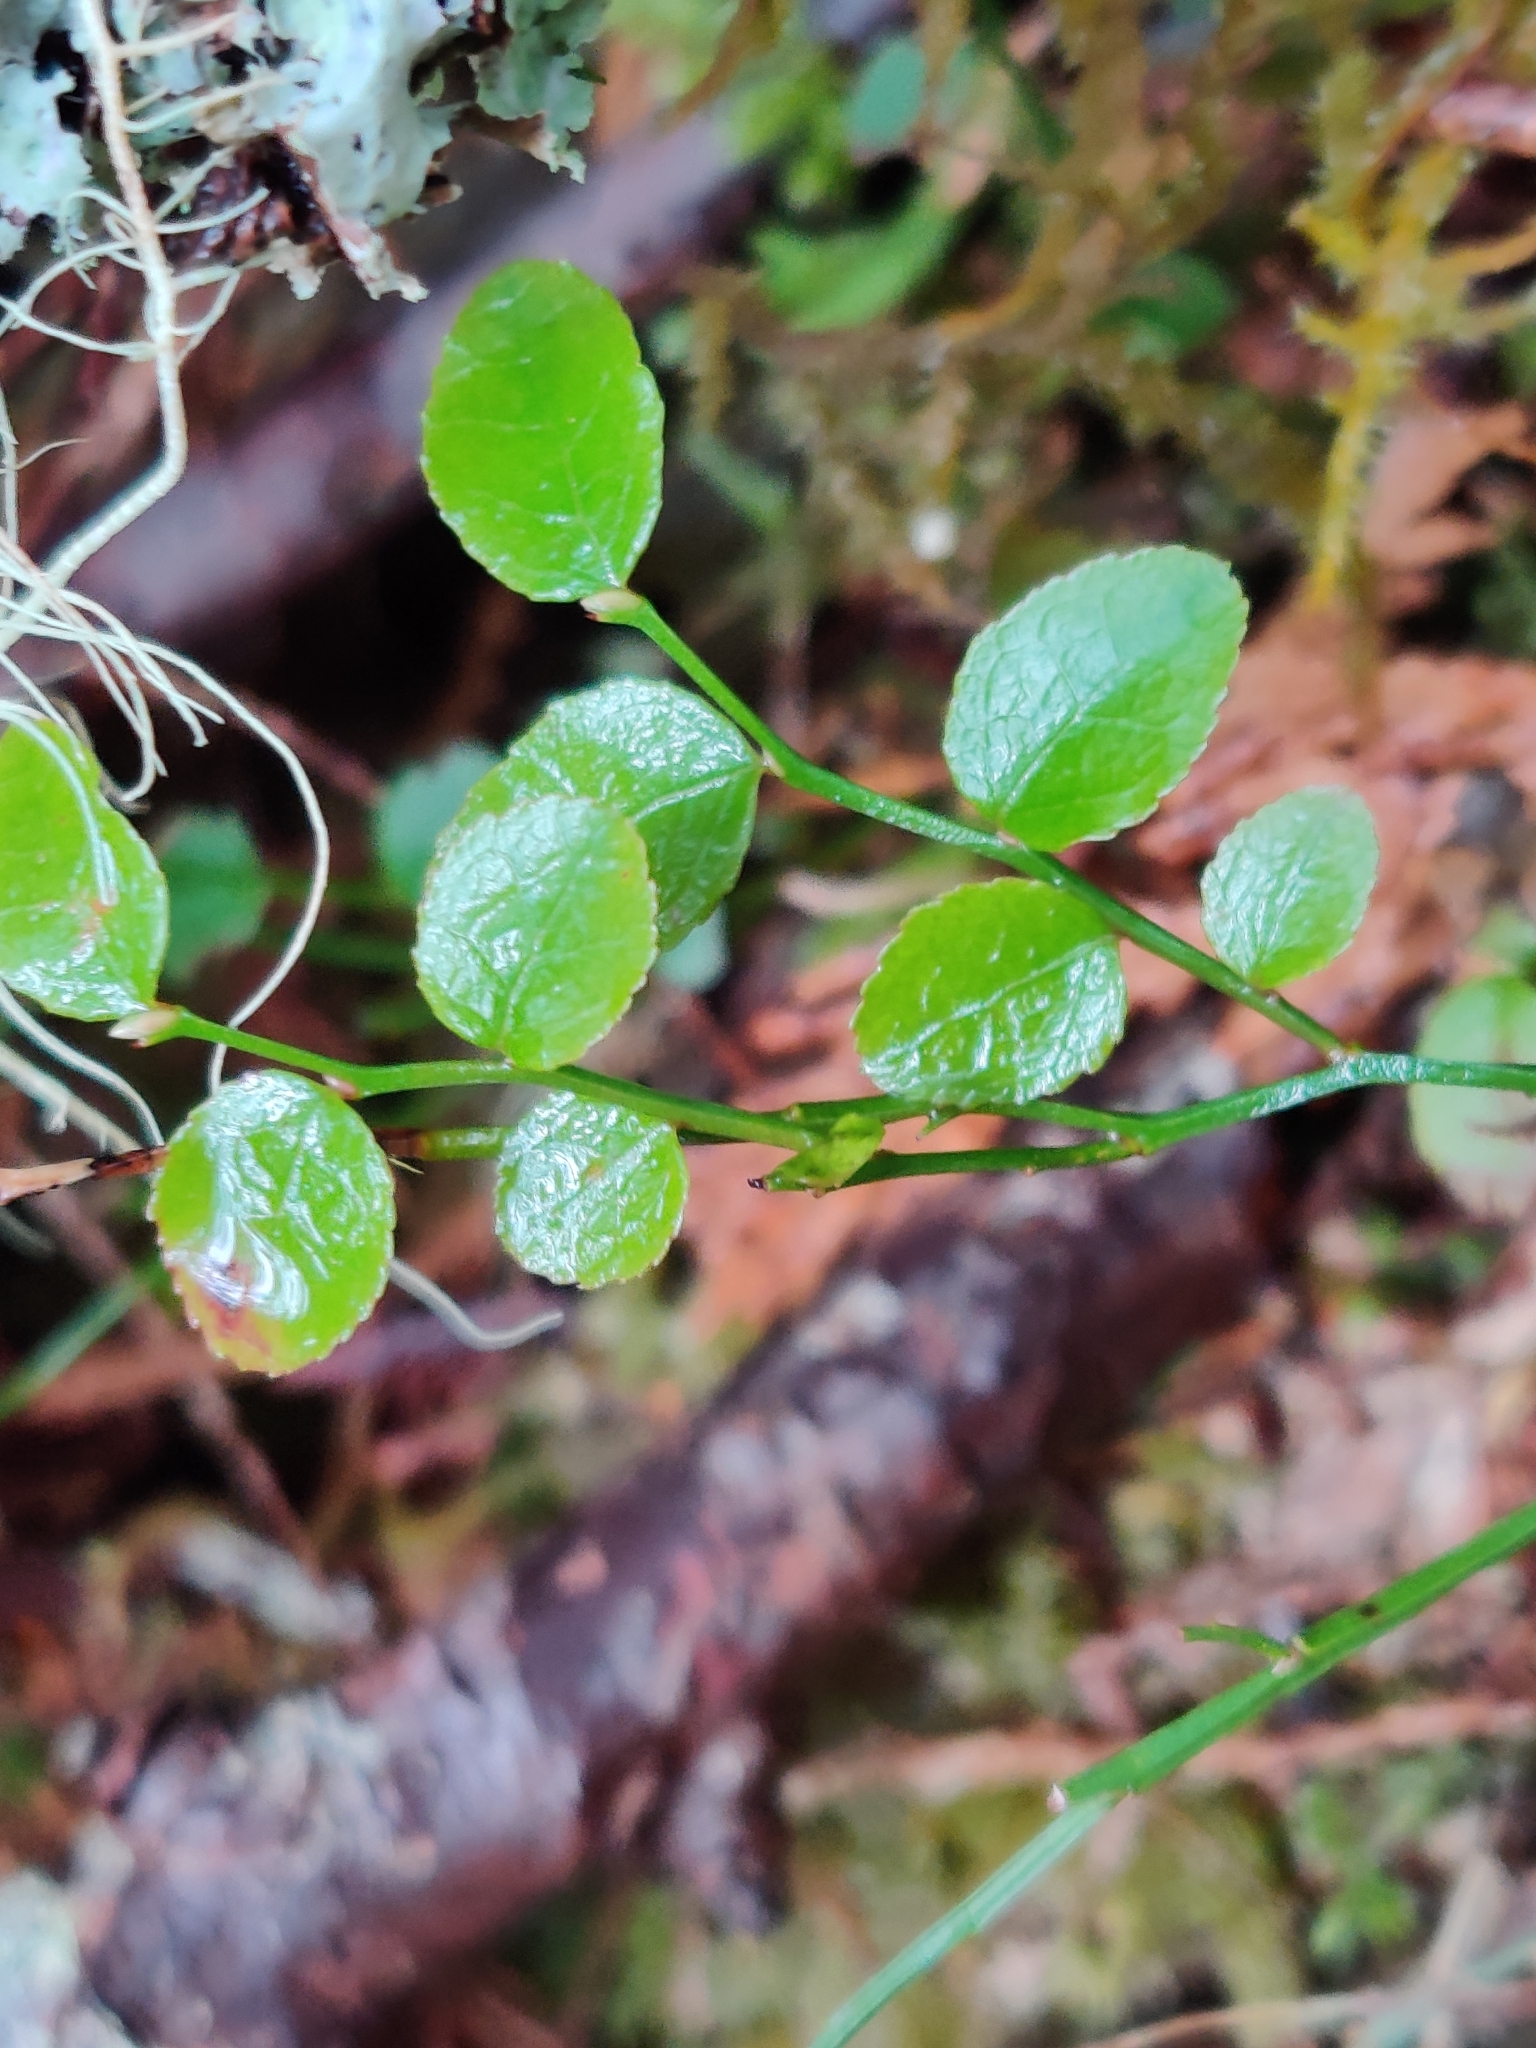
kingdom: Plantae
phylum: Tracheophyta
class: Magnoliopsida
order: Ericales
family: Ericaceae
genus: Vaccinium
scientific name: Vaccinium parvifolium
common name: Red-huckleberry
